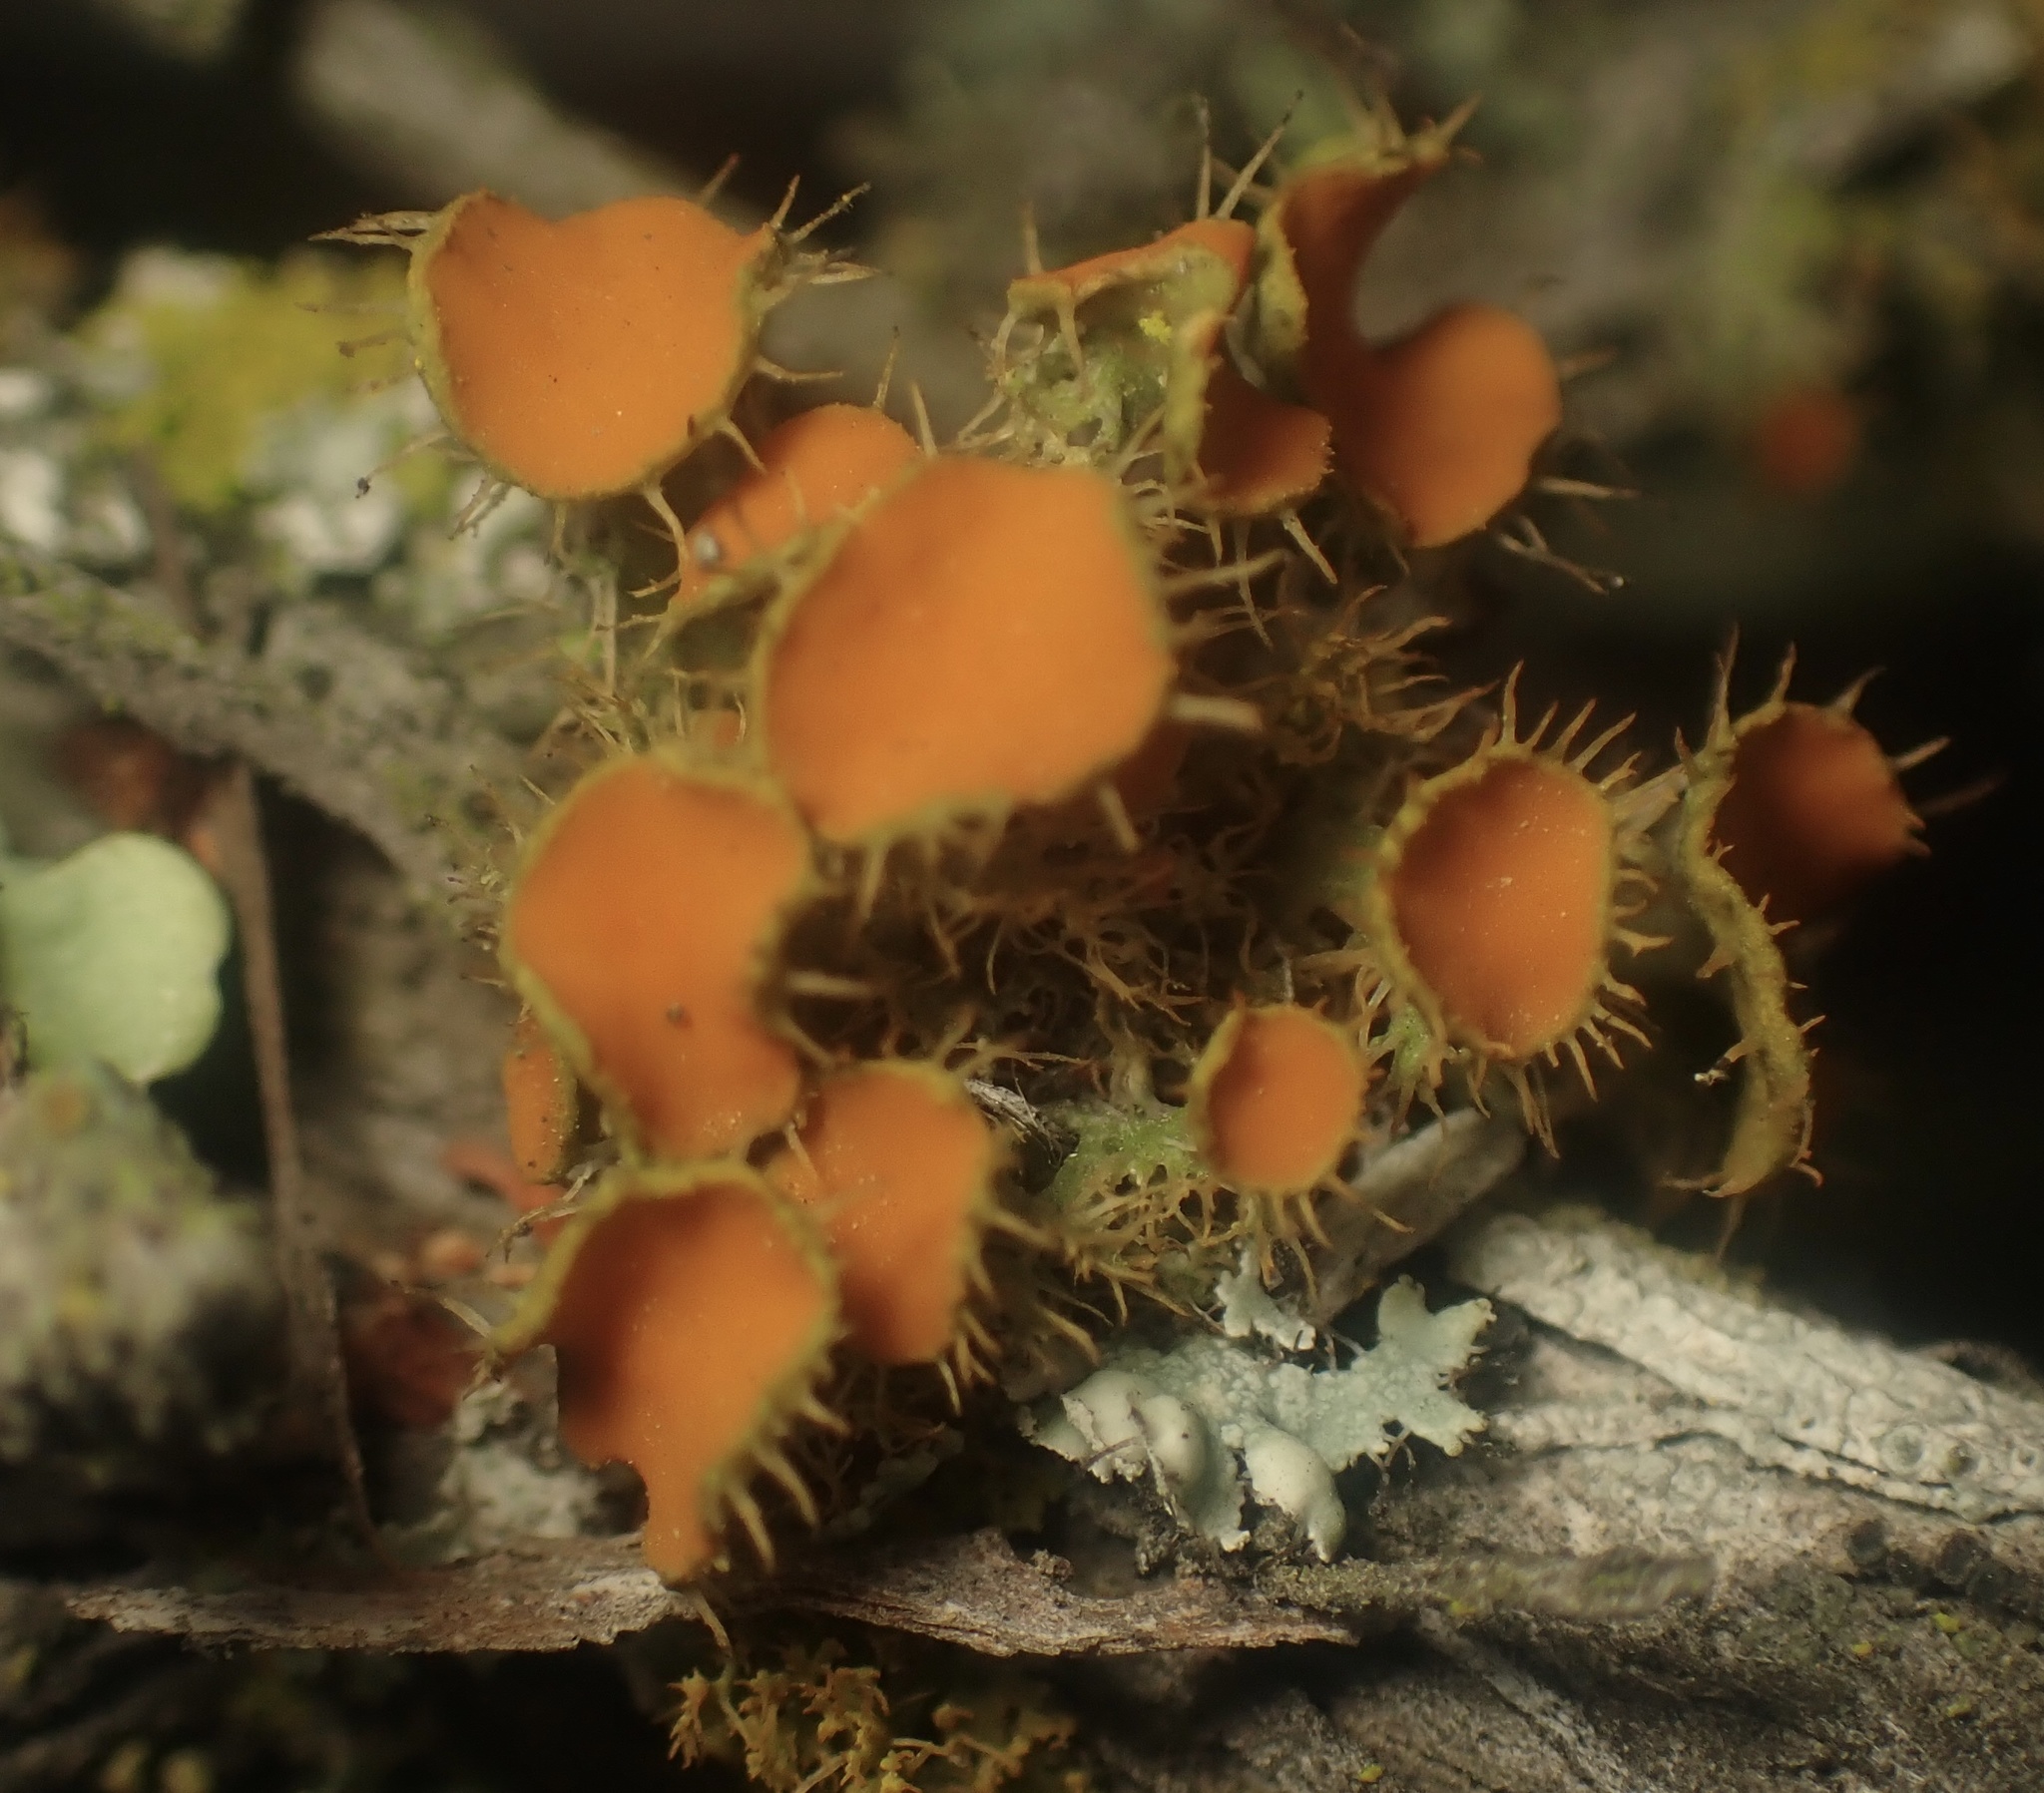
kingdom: Fungi
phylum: Ascomycota
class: Lecanoromycetes
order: Teloschistales
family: Teloschistaceae
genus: Niorma
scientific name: Niorma chrysophthalma
